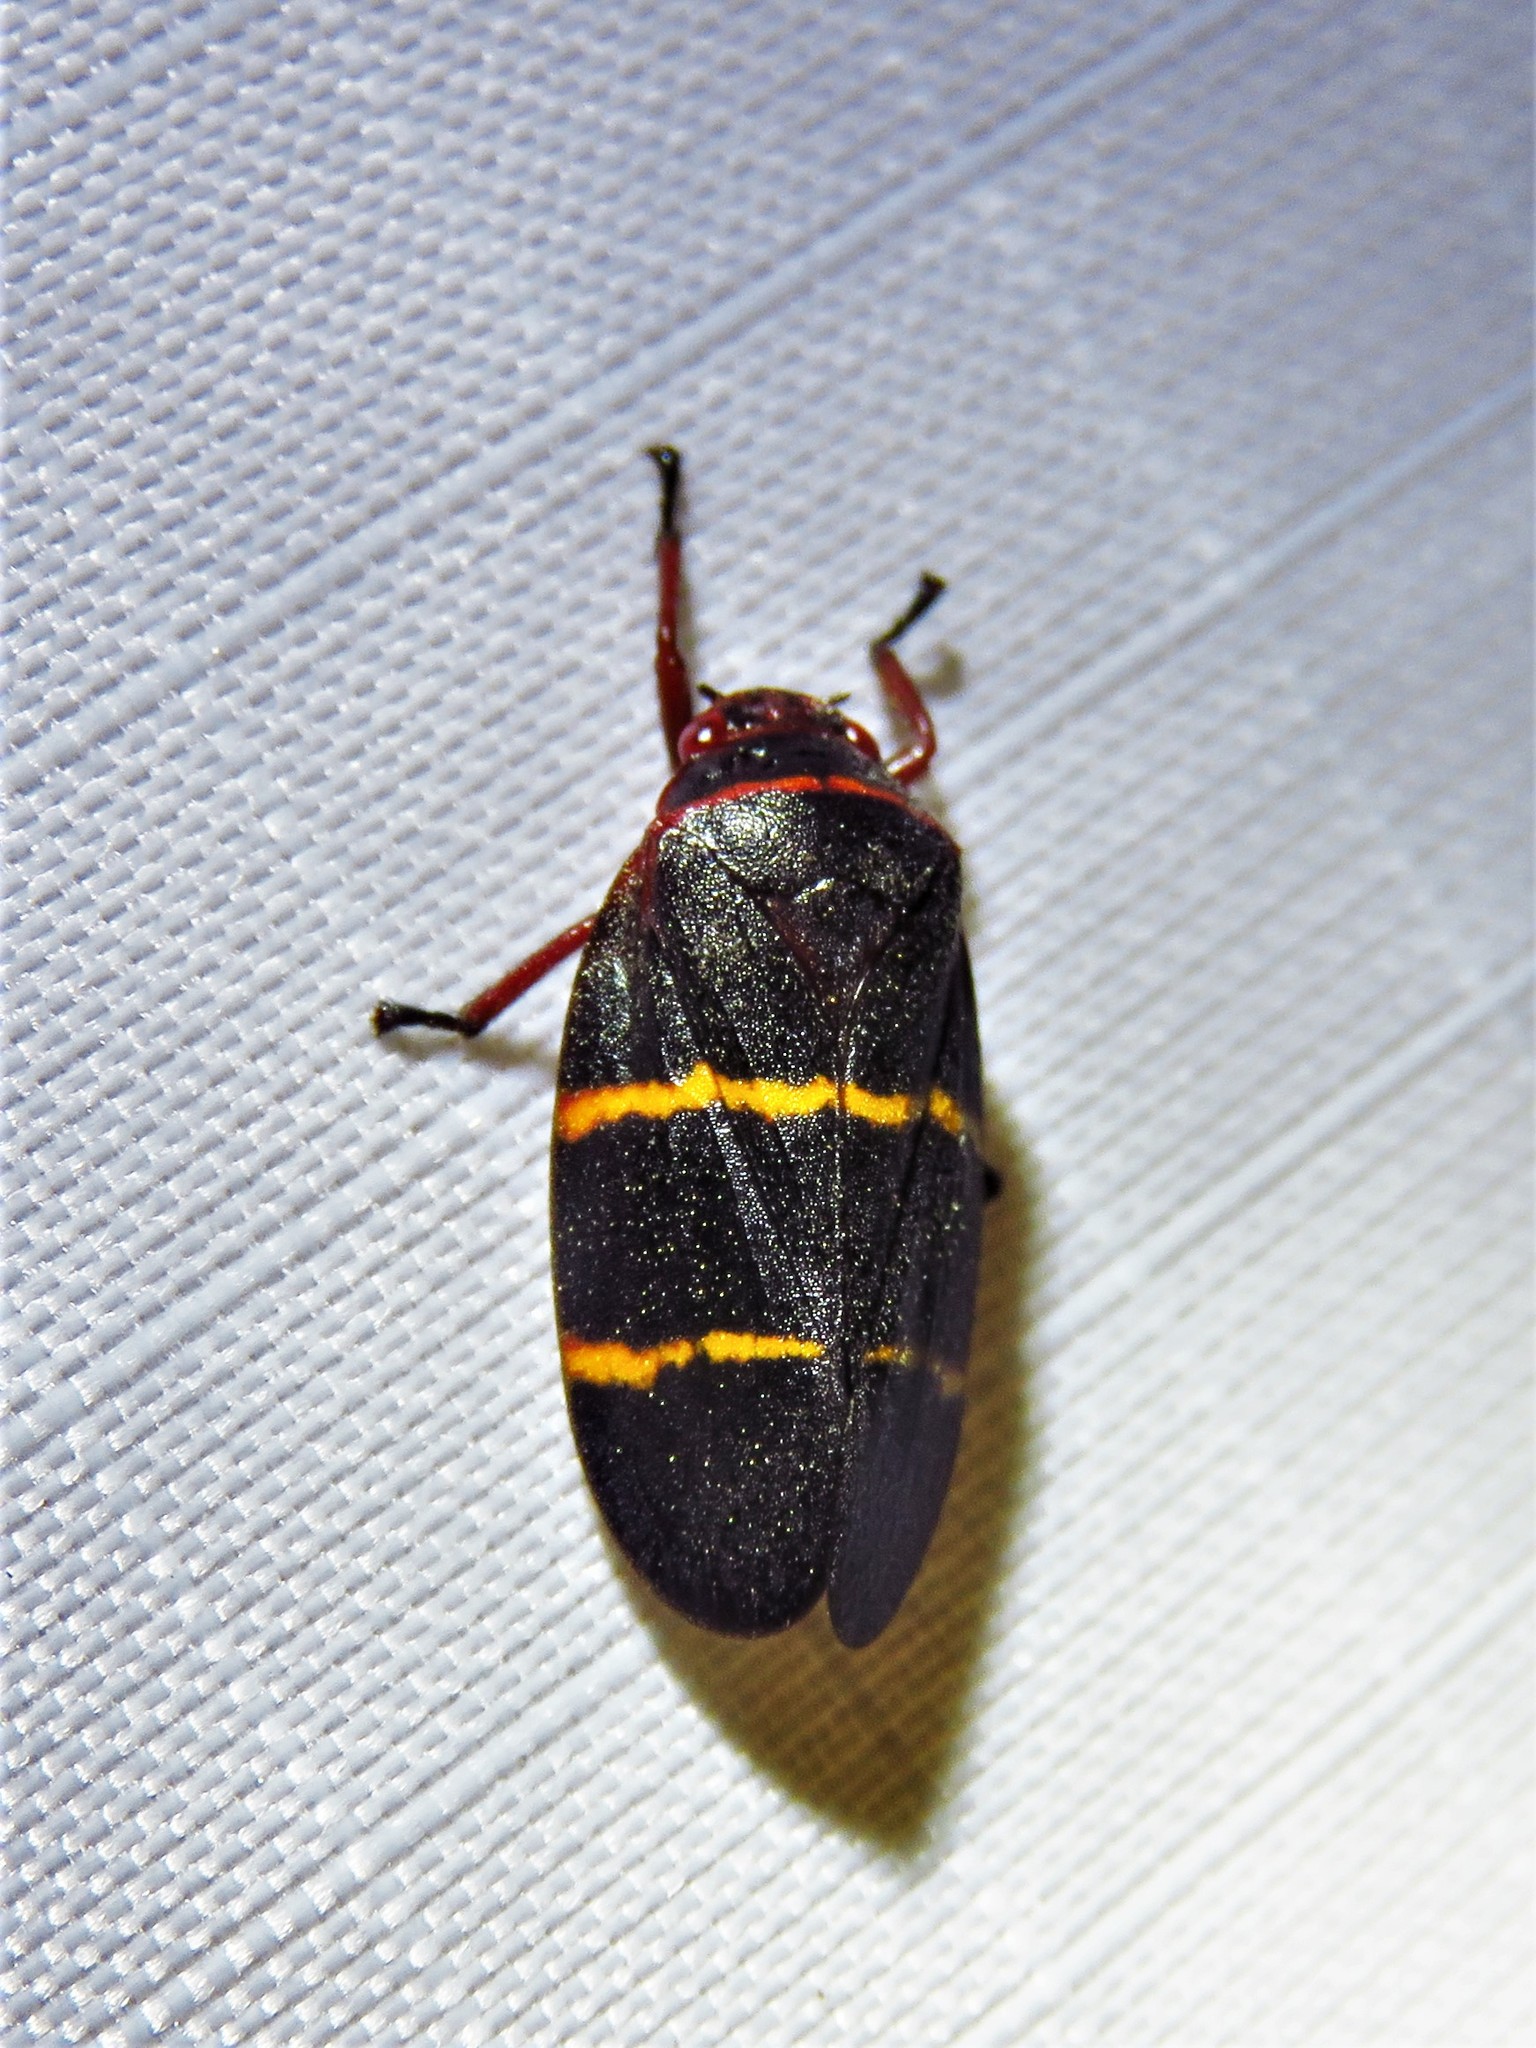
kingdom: Animalia
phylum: Arthropoda
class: Insecta
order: Hemiptera
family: Cercopidae
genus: Prosapia
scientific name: Prosapia bicincta
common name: Twolined spittlebug
